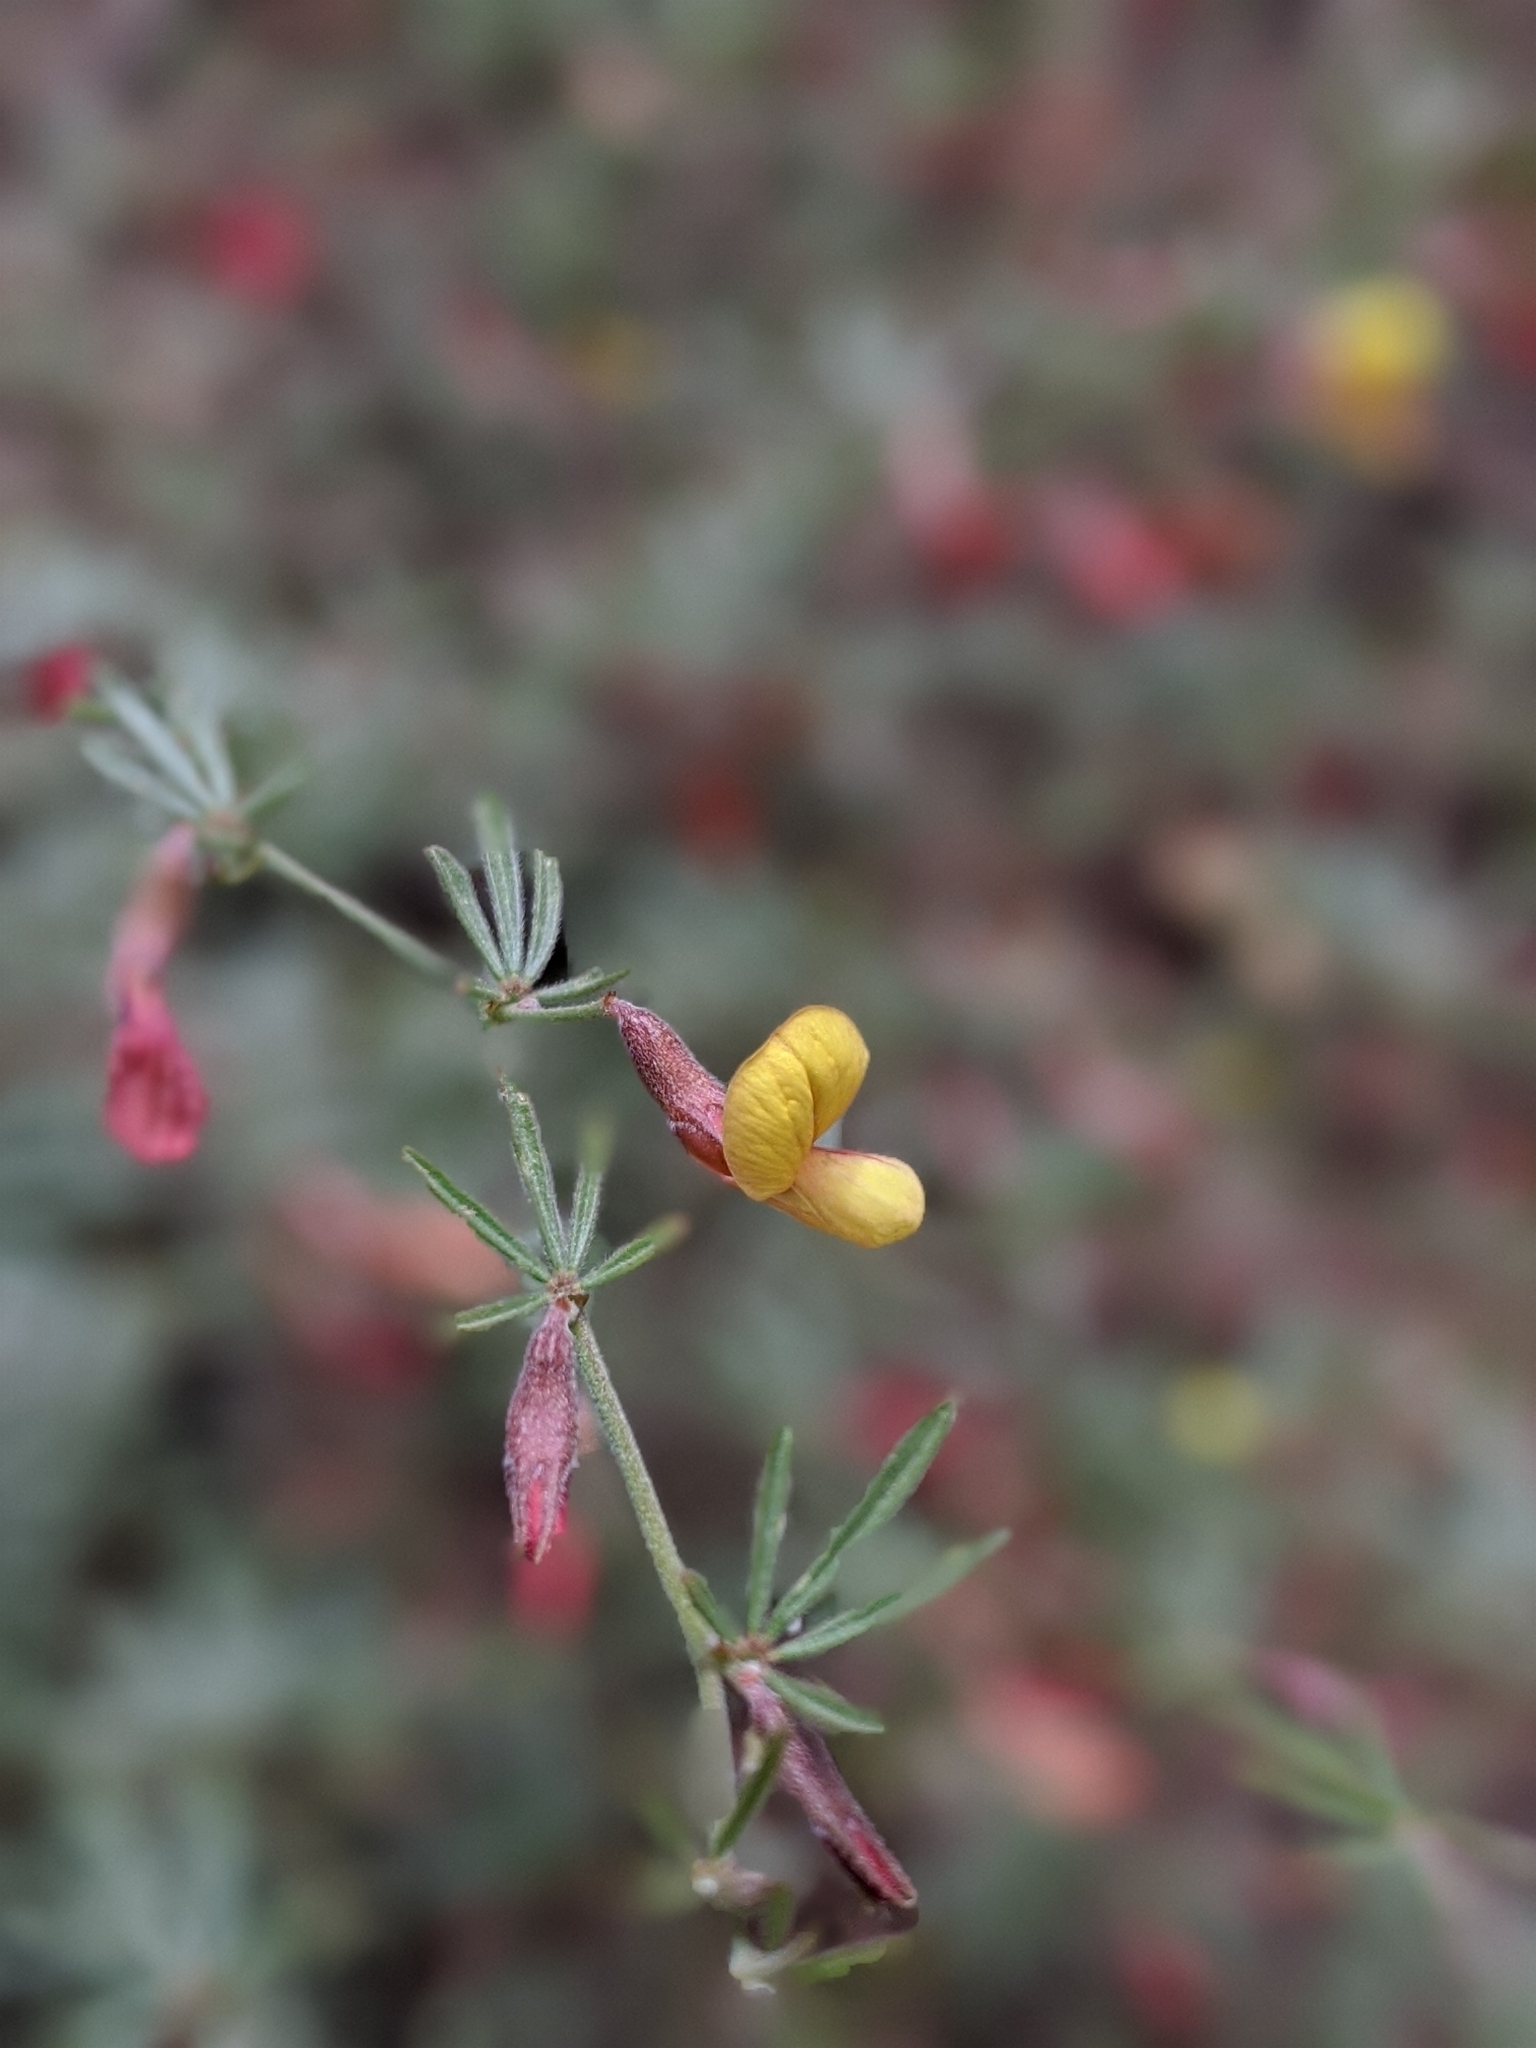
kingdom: Plantae
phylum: Tracheophyta
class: Magnoliopsida
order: Fabales
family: Fabaceae
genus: Acmispon
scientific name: Acmispon wrightii
